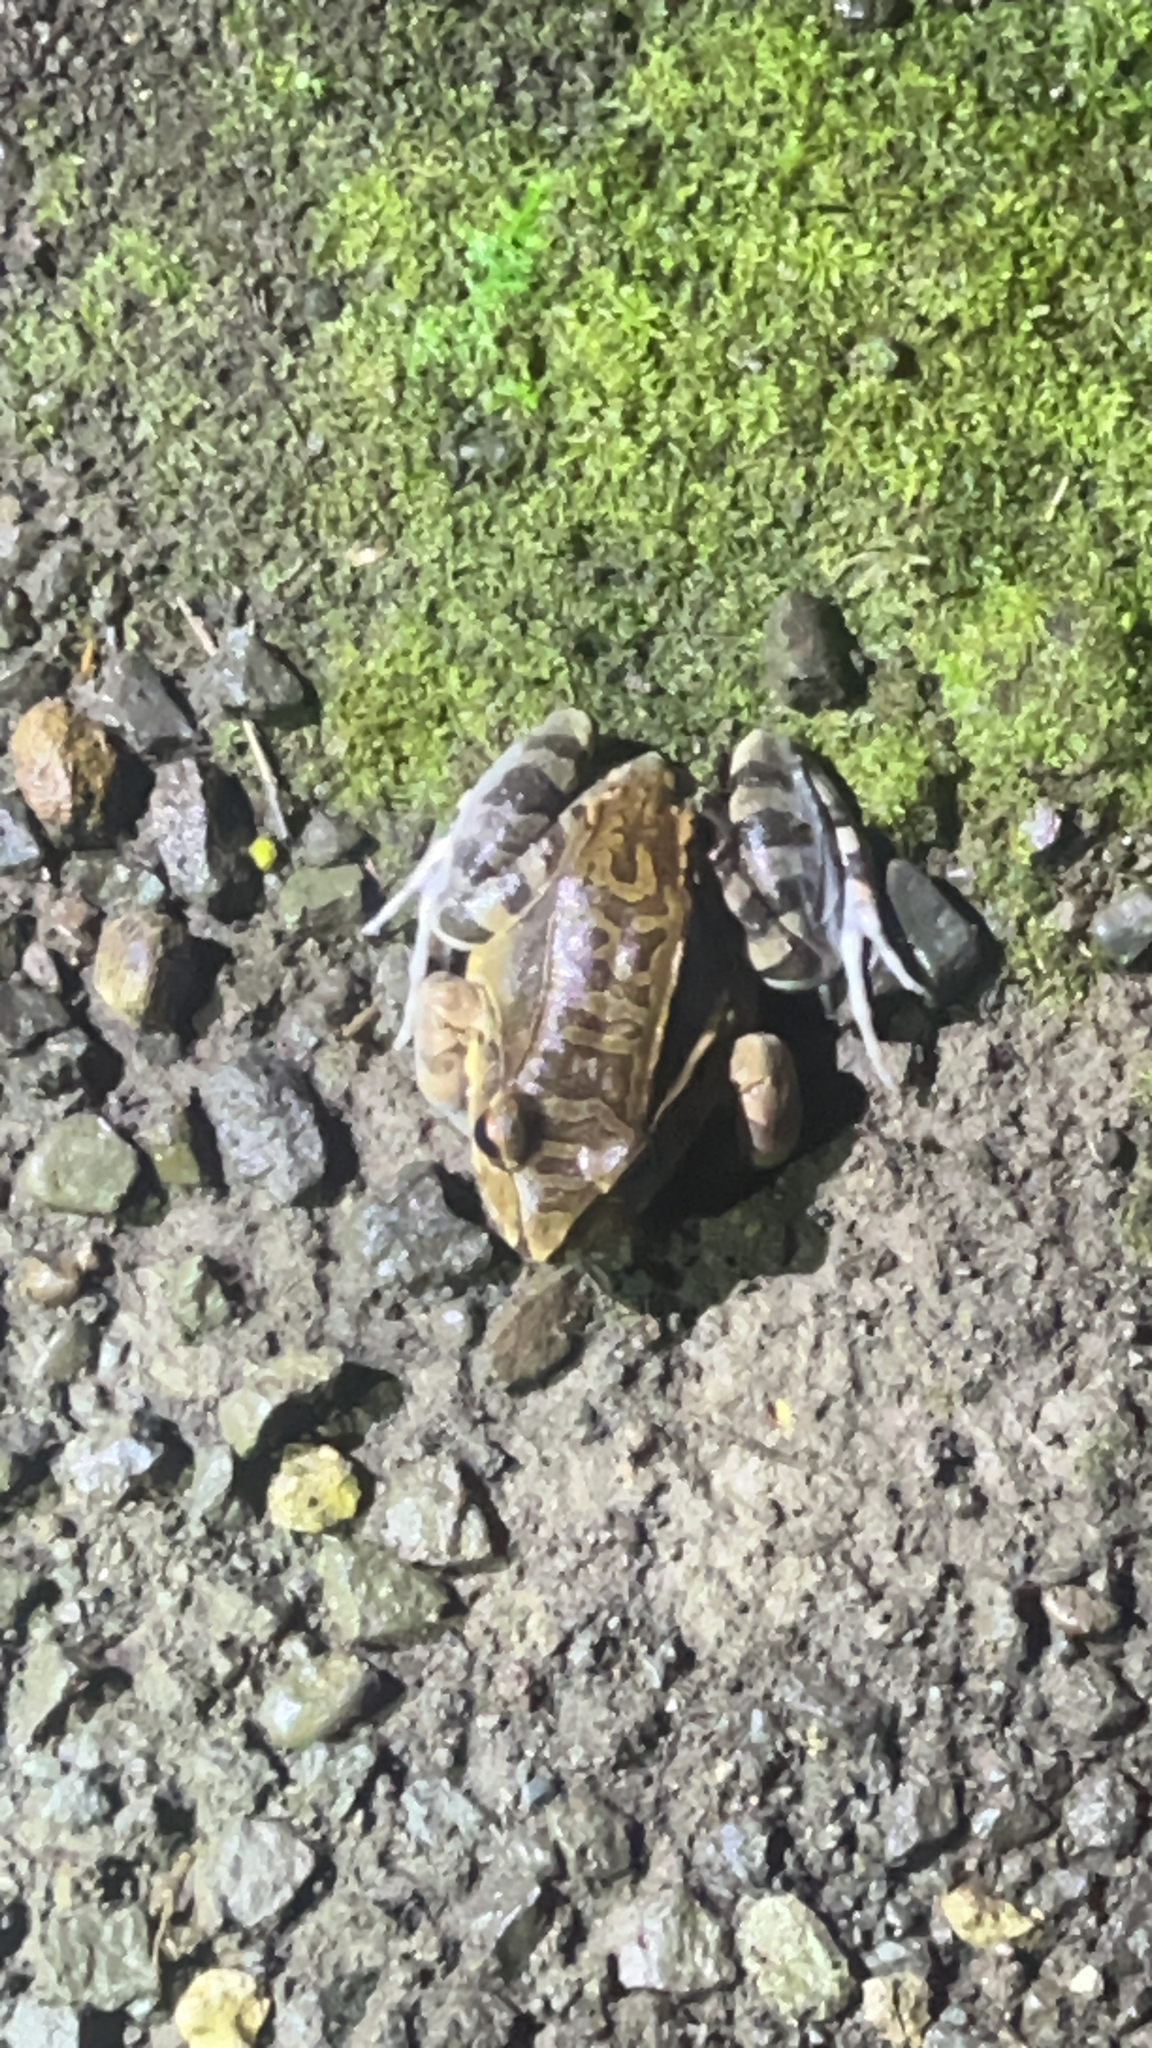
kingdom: Animalia
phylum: Chordata
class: Amphibia
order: Anura
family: Leptodactylidae
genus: Leptodactylus
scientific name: Leptodactylus savagei
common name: Savage's thin-toed frog
